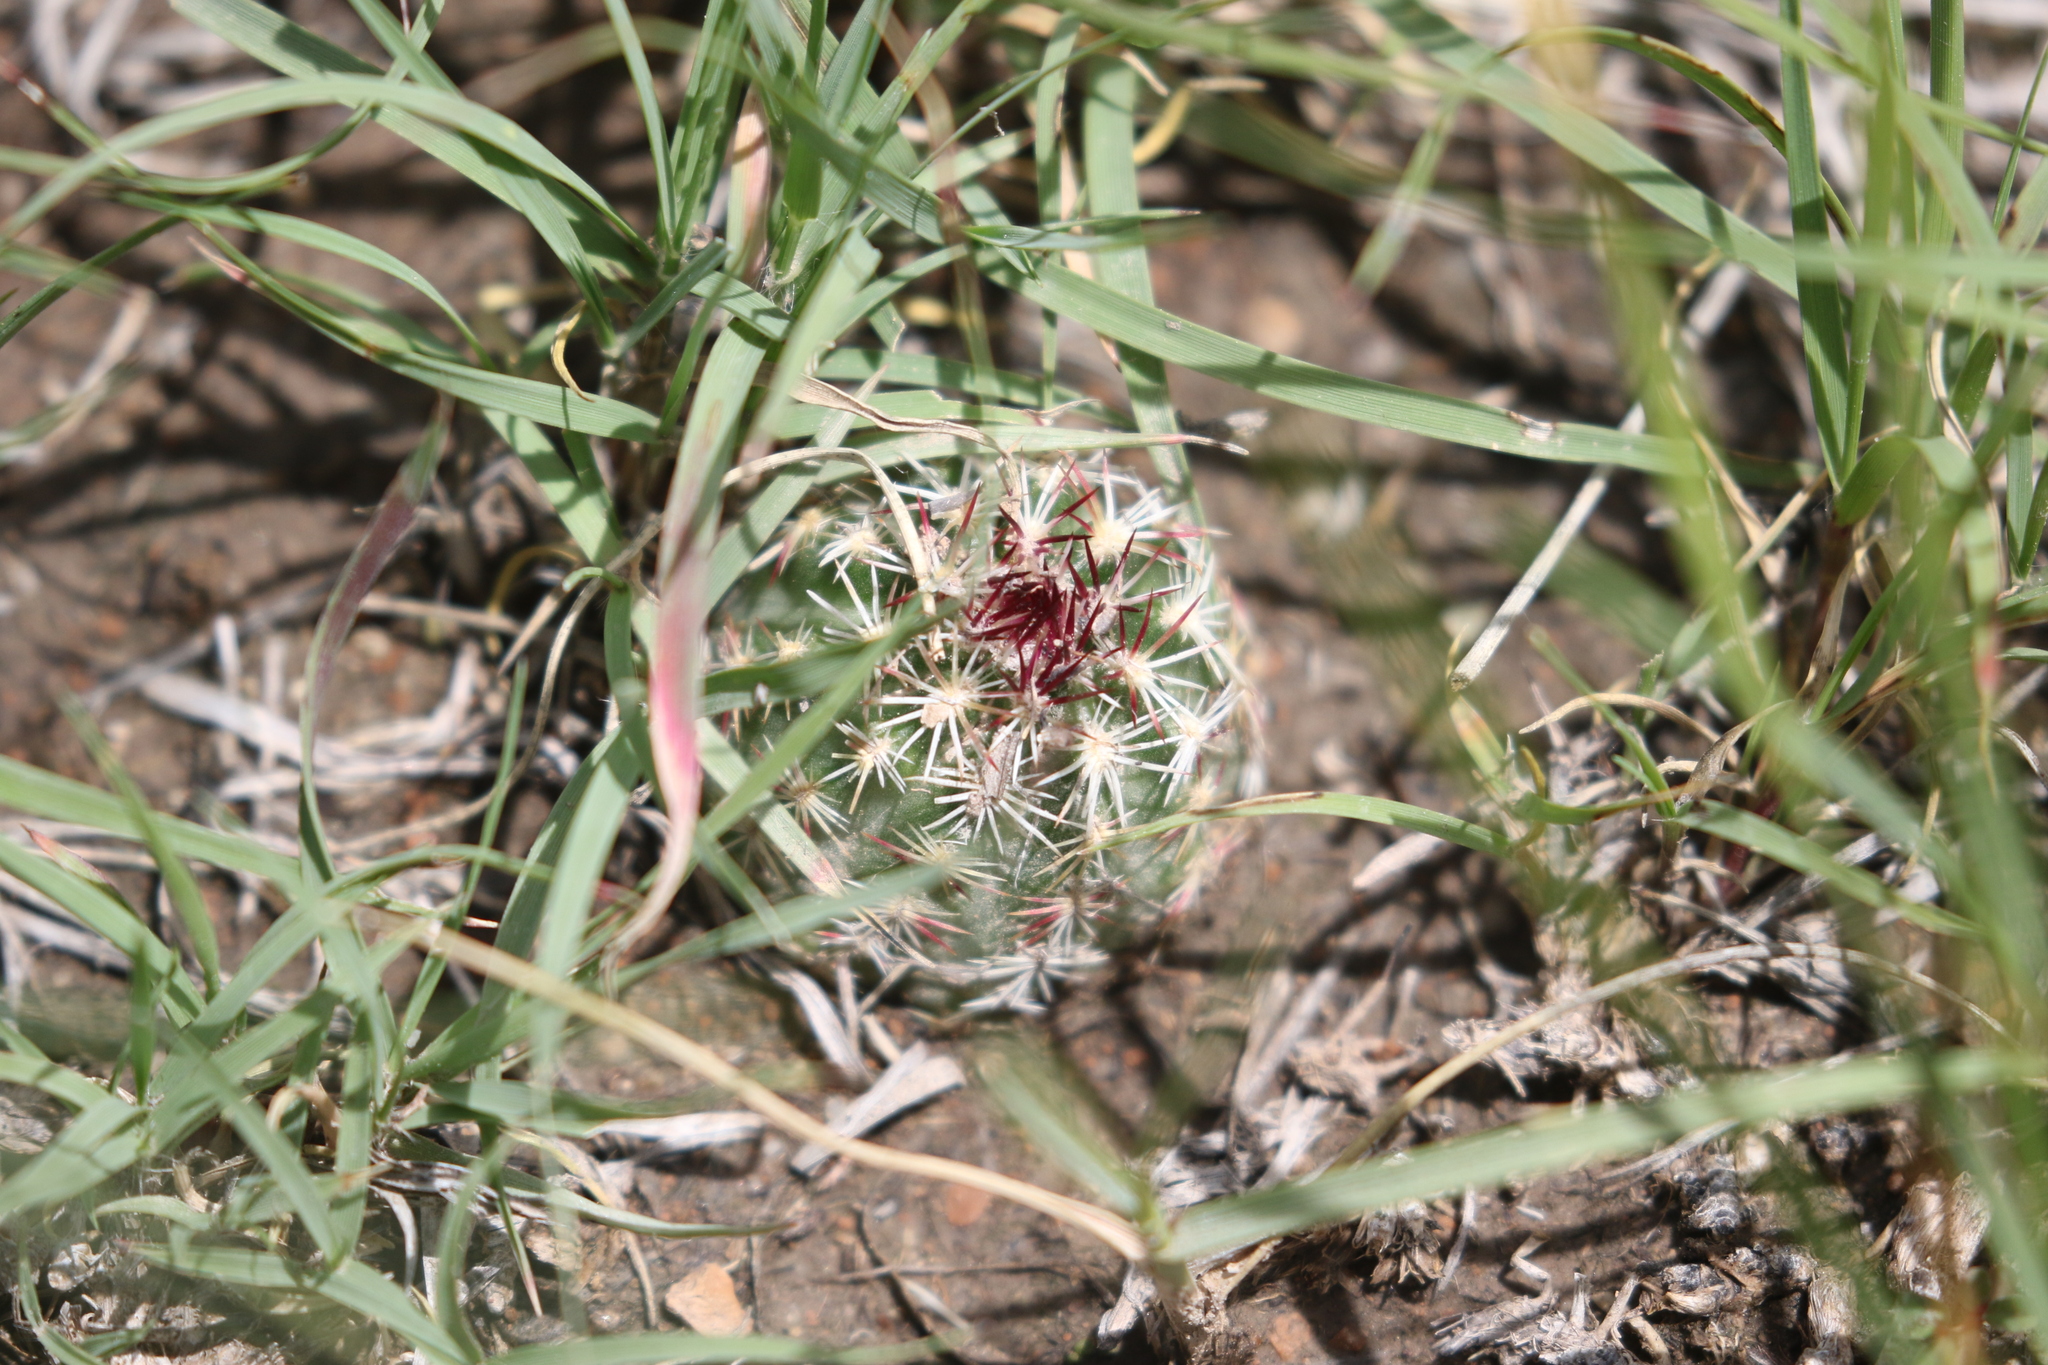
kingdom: Plantae
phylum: Tracheophyta
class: Magnoliopsida
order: Caryophyllales
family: Cactaceae
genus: Echinocereus
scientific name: Echinocereus viridiflorus
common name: Nylon hedgehog cactus
